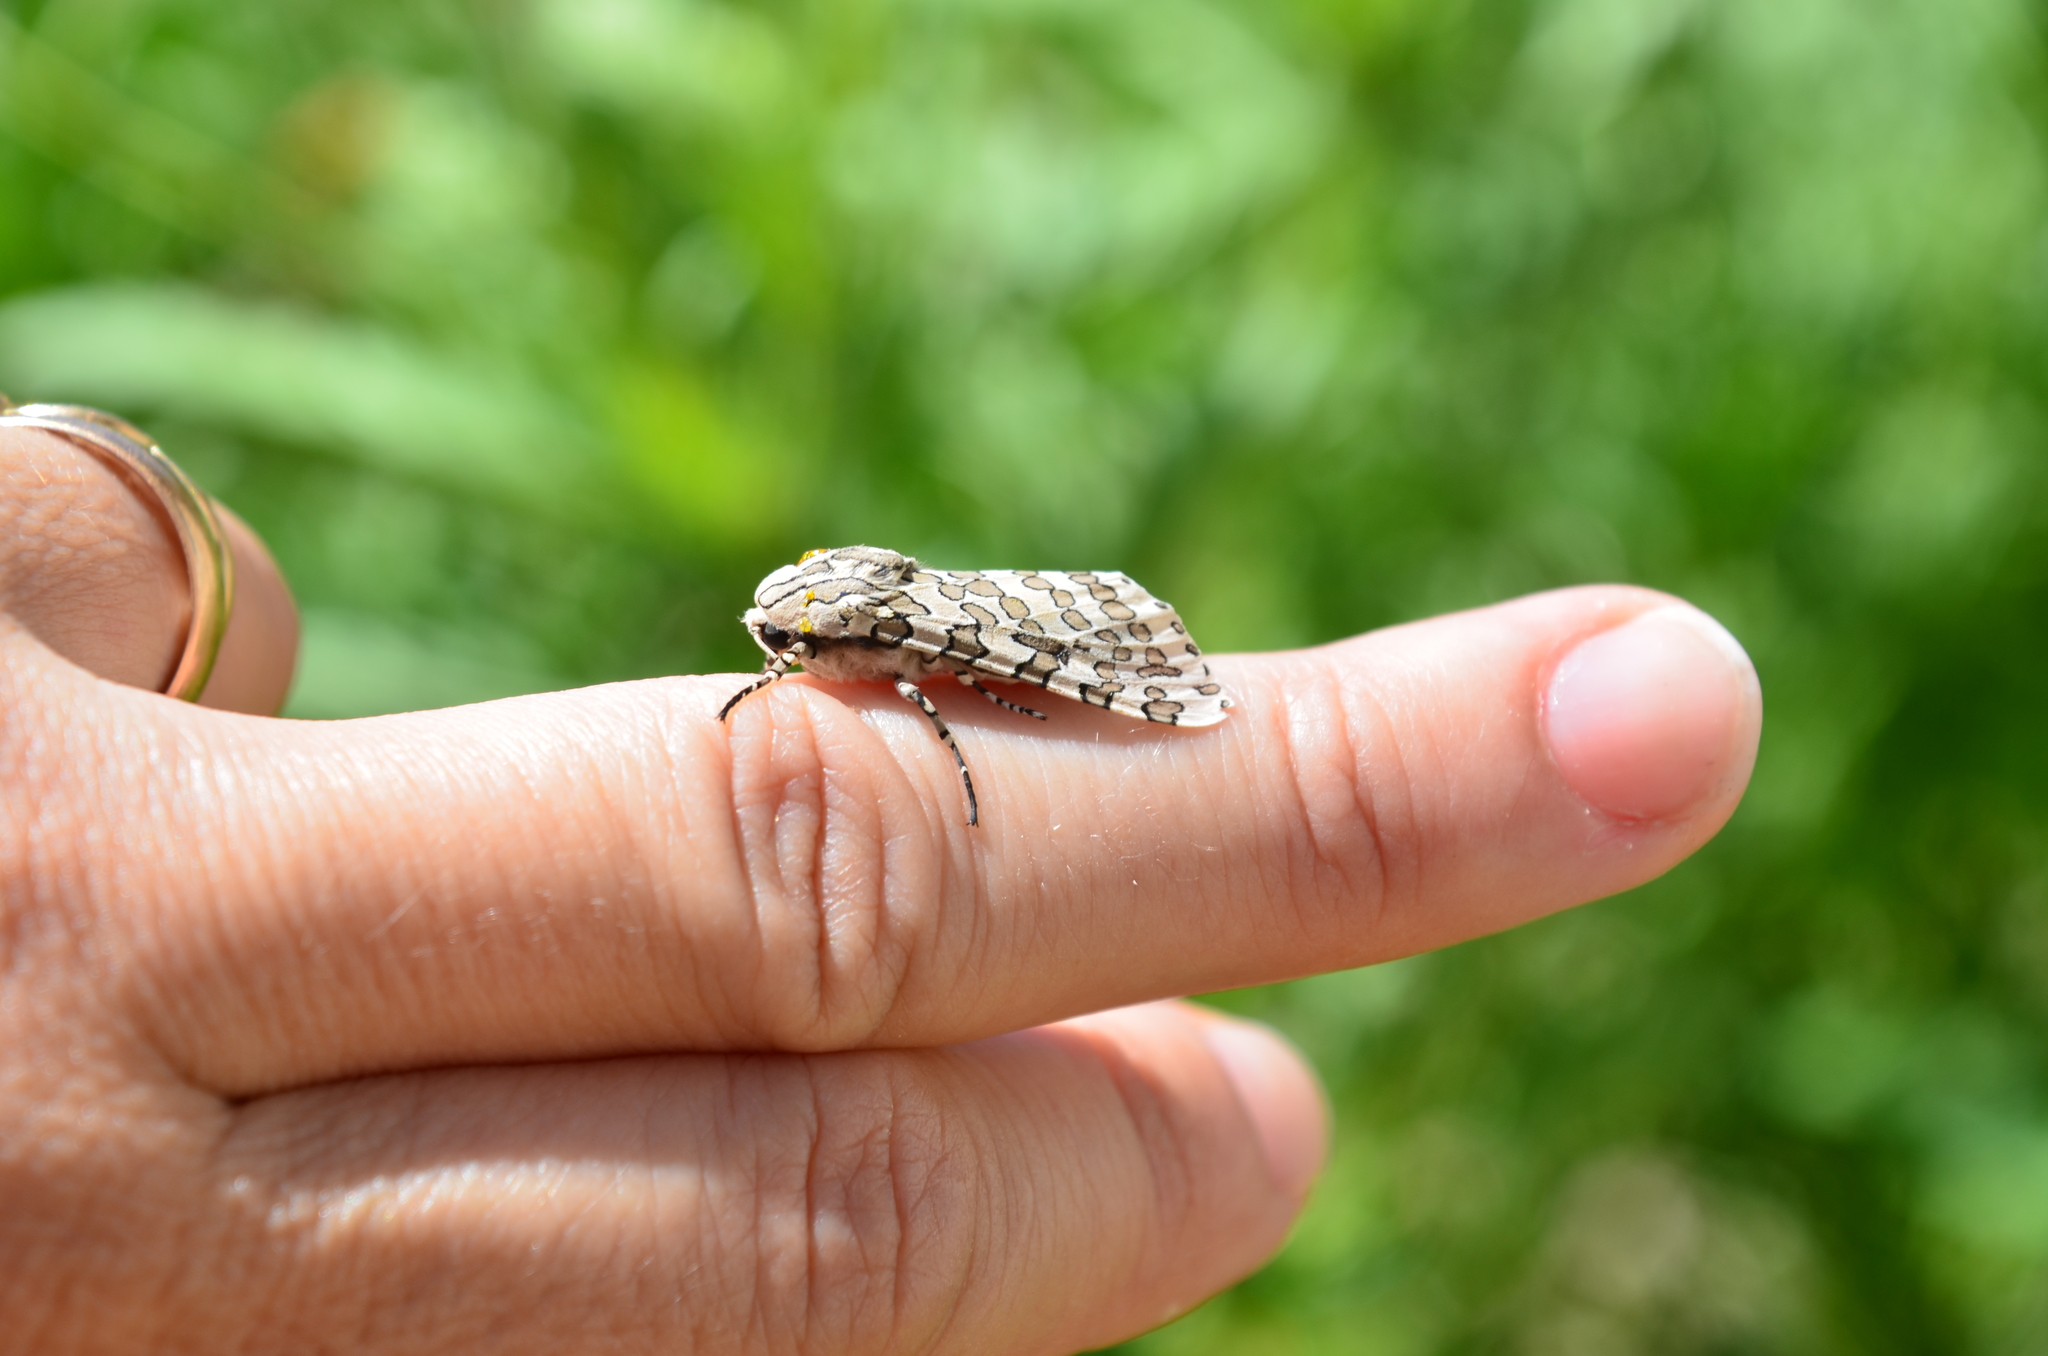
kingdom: Animalia
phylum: Arthropoda
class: Insecta
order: Lepidoptera
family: Erebidae
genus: Hypercompe
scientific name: Hypercompe indecisa
